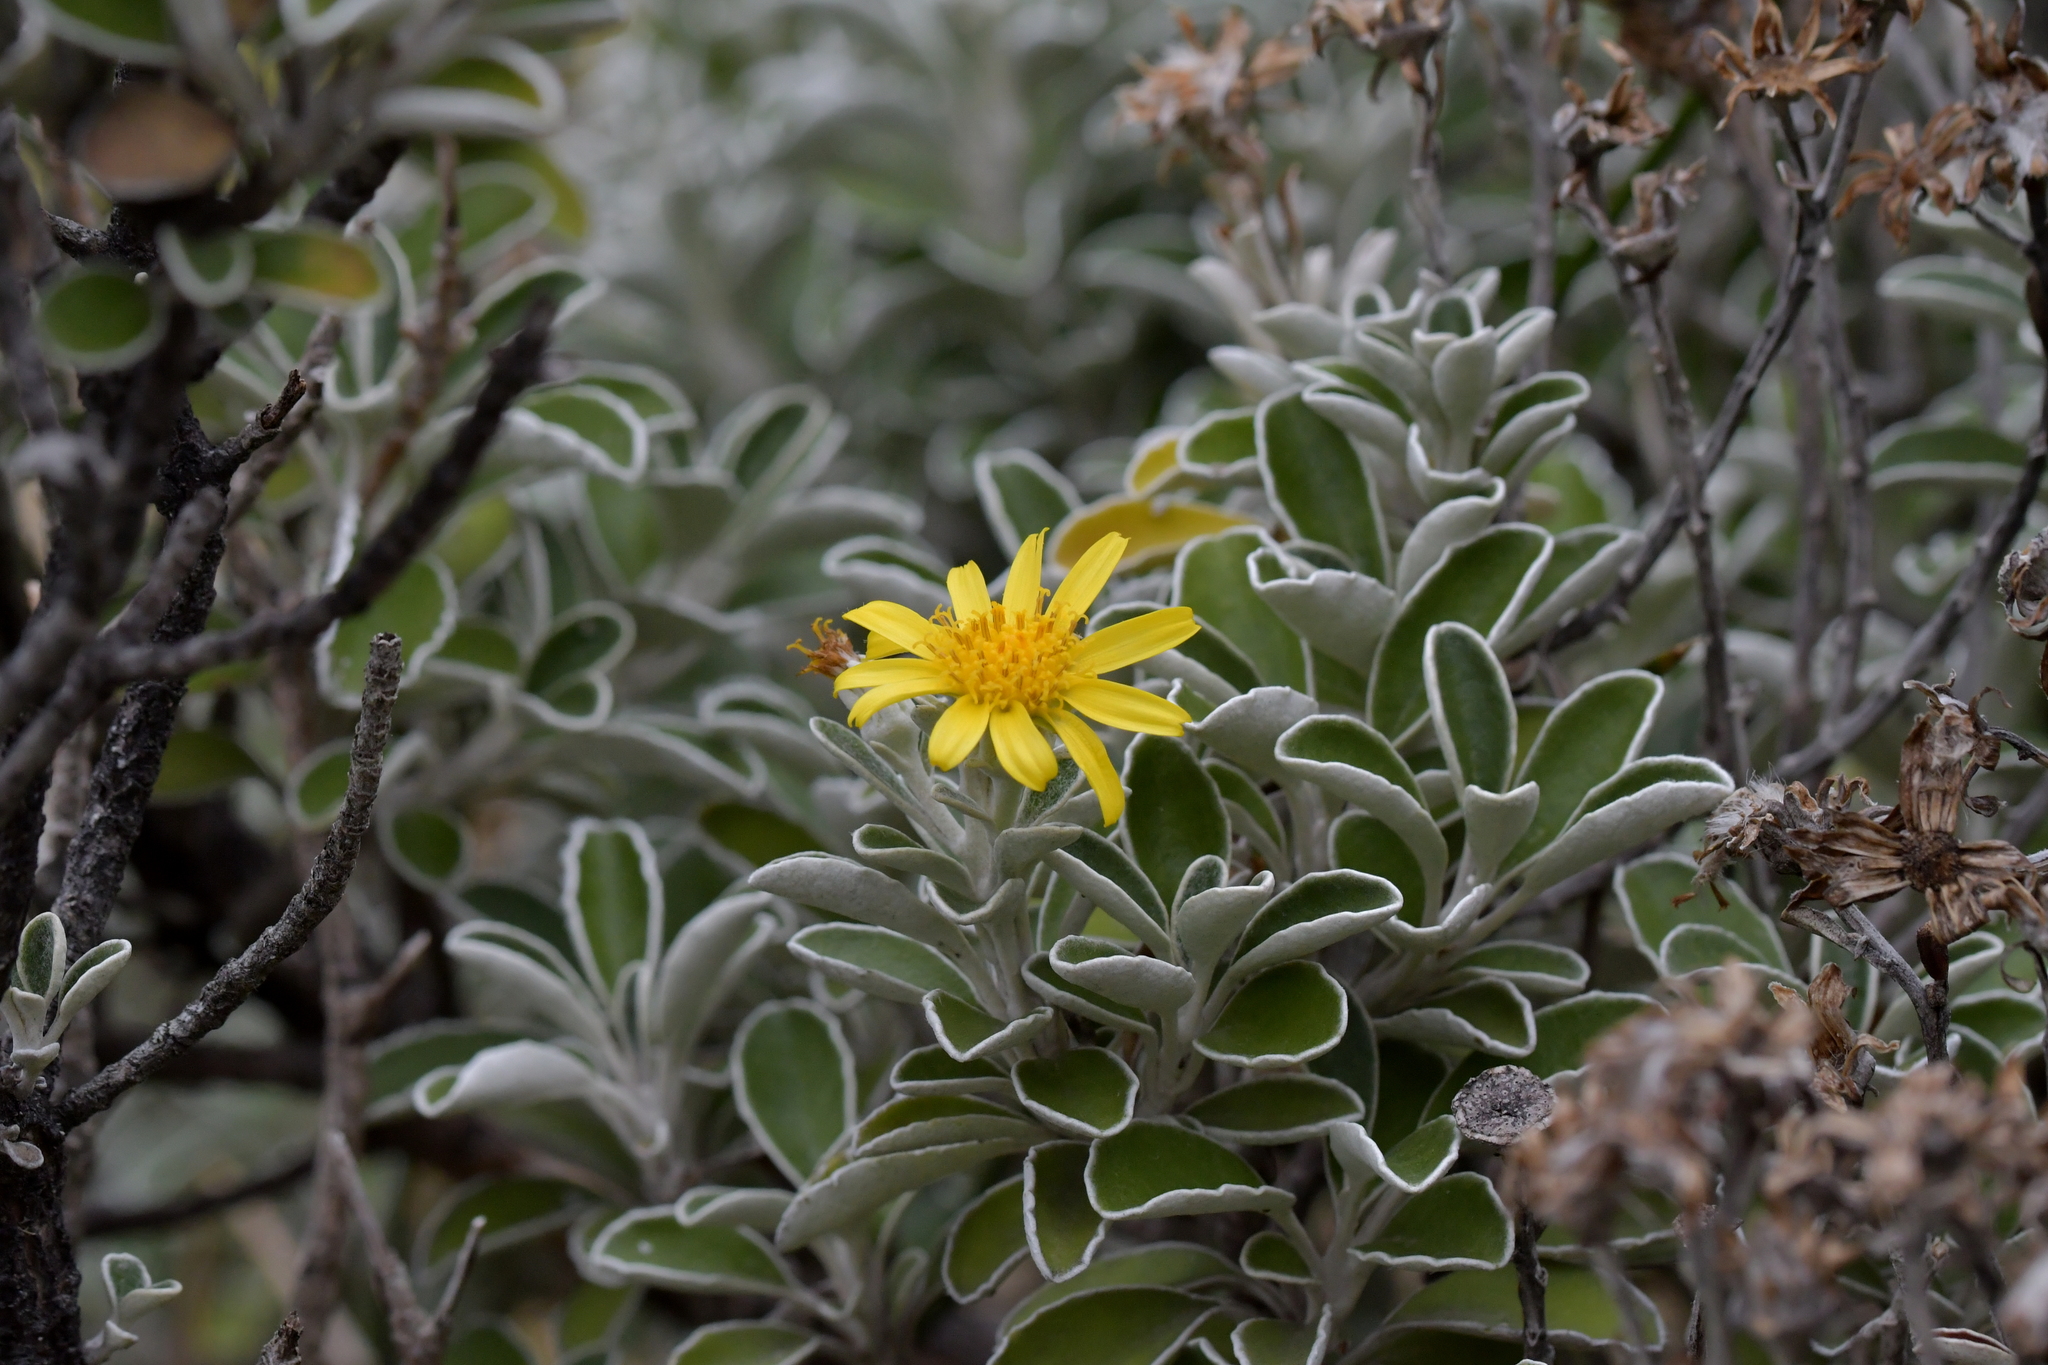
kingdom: Plantae
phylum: Tracheophyta
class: Magnoliopsida
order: Asterales
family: Asteraceae
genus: Brachyglottis
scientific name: Brachyglottis compacta
